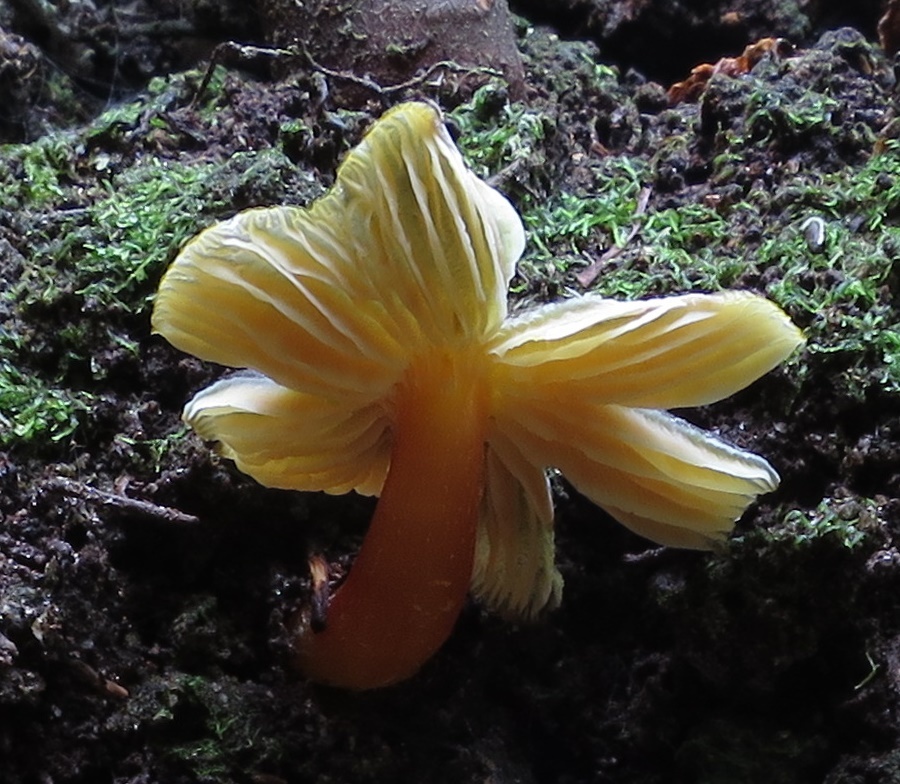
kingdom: Fungi
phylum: Basidiomycota
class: Agaricomycetes
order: Agaricales
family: Hygrophoraceae
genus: Hygrocybe
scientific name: Hygrocybe fuliginata
